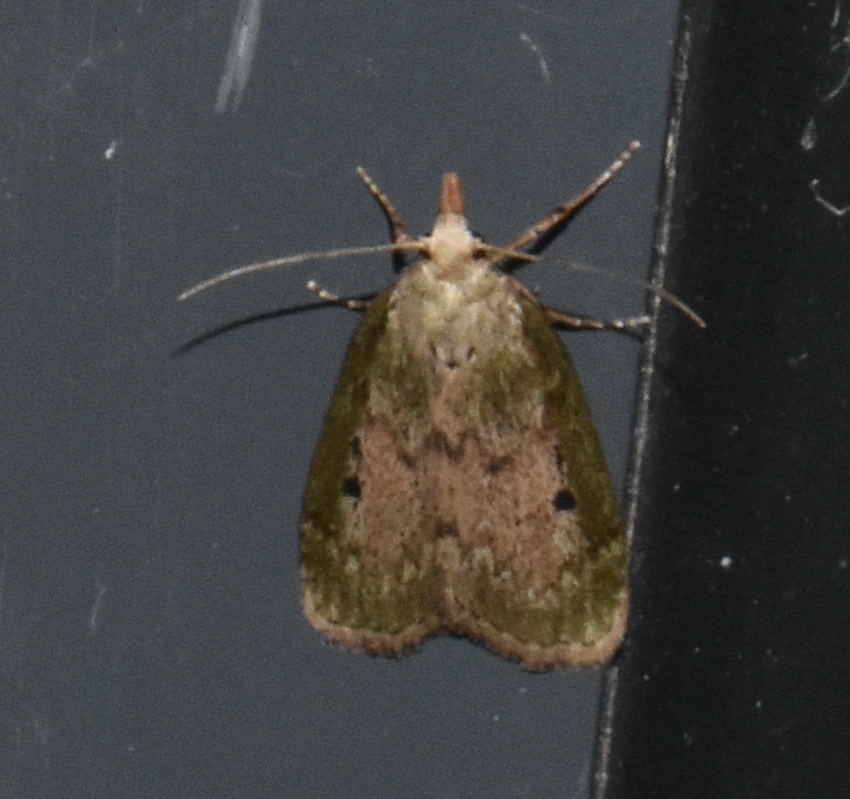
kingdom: Animalia
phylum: Arthropoda
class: Insecta
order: Lepidoptera
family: Pyralidae
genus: Aphomia
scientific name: Aphomia sociella
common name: Bee moth
